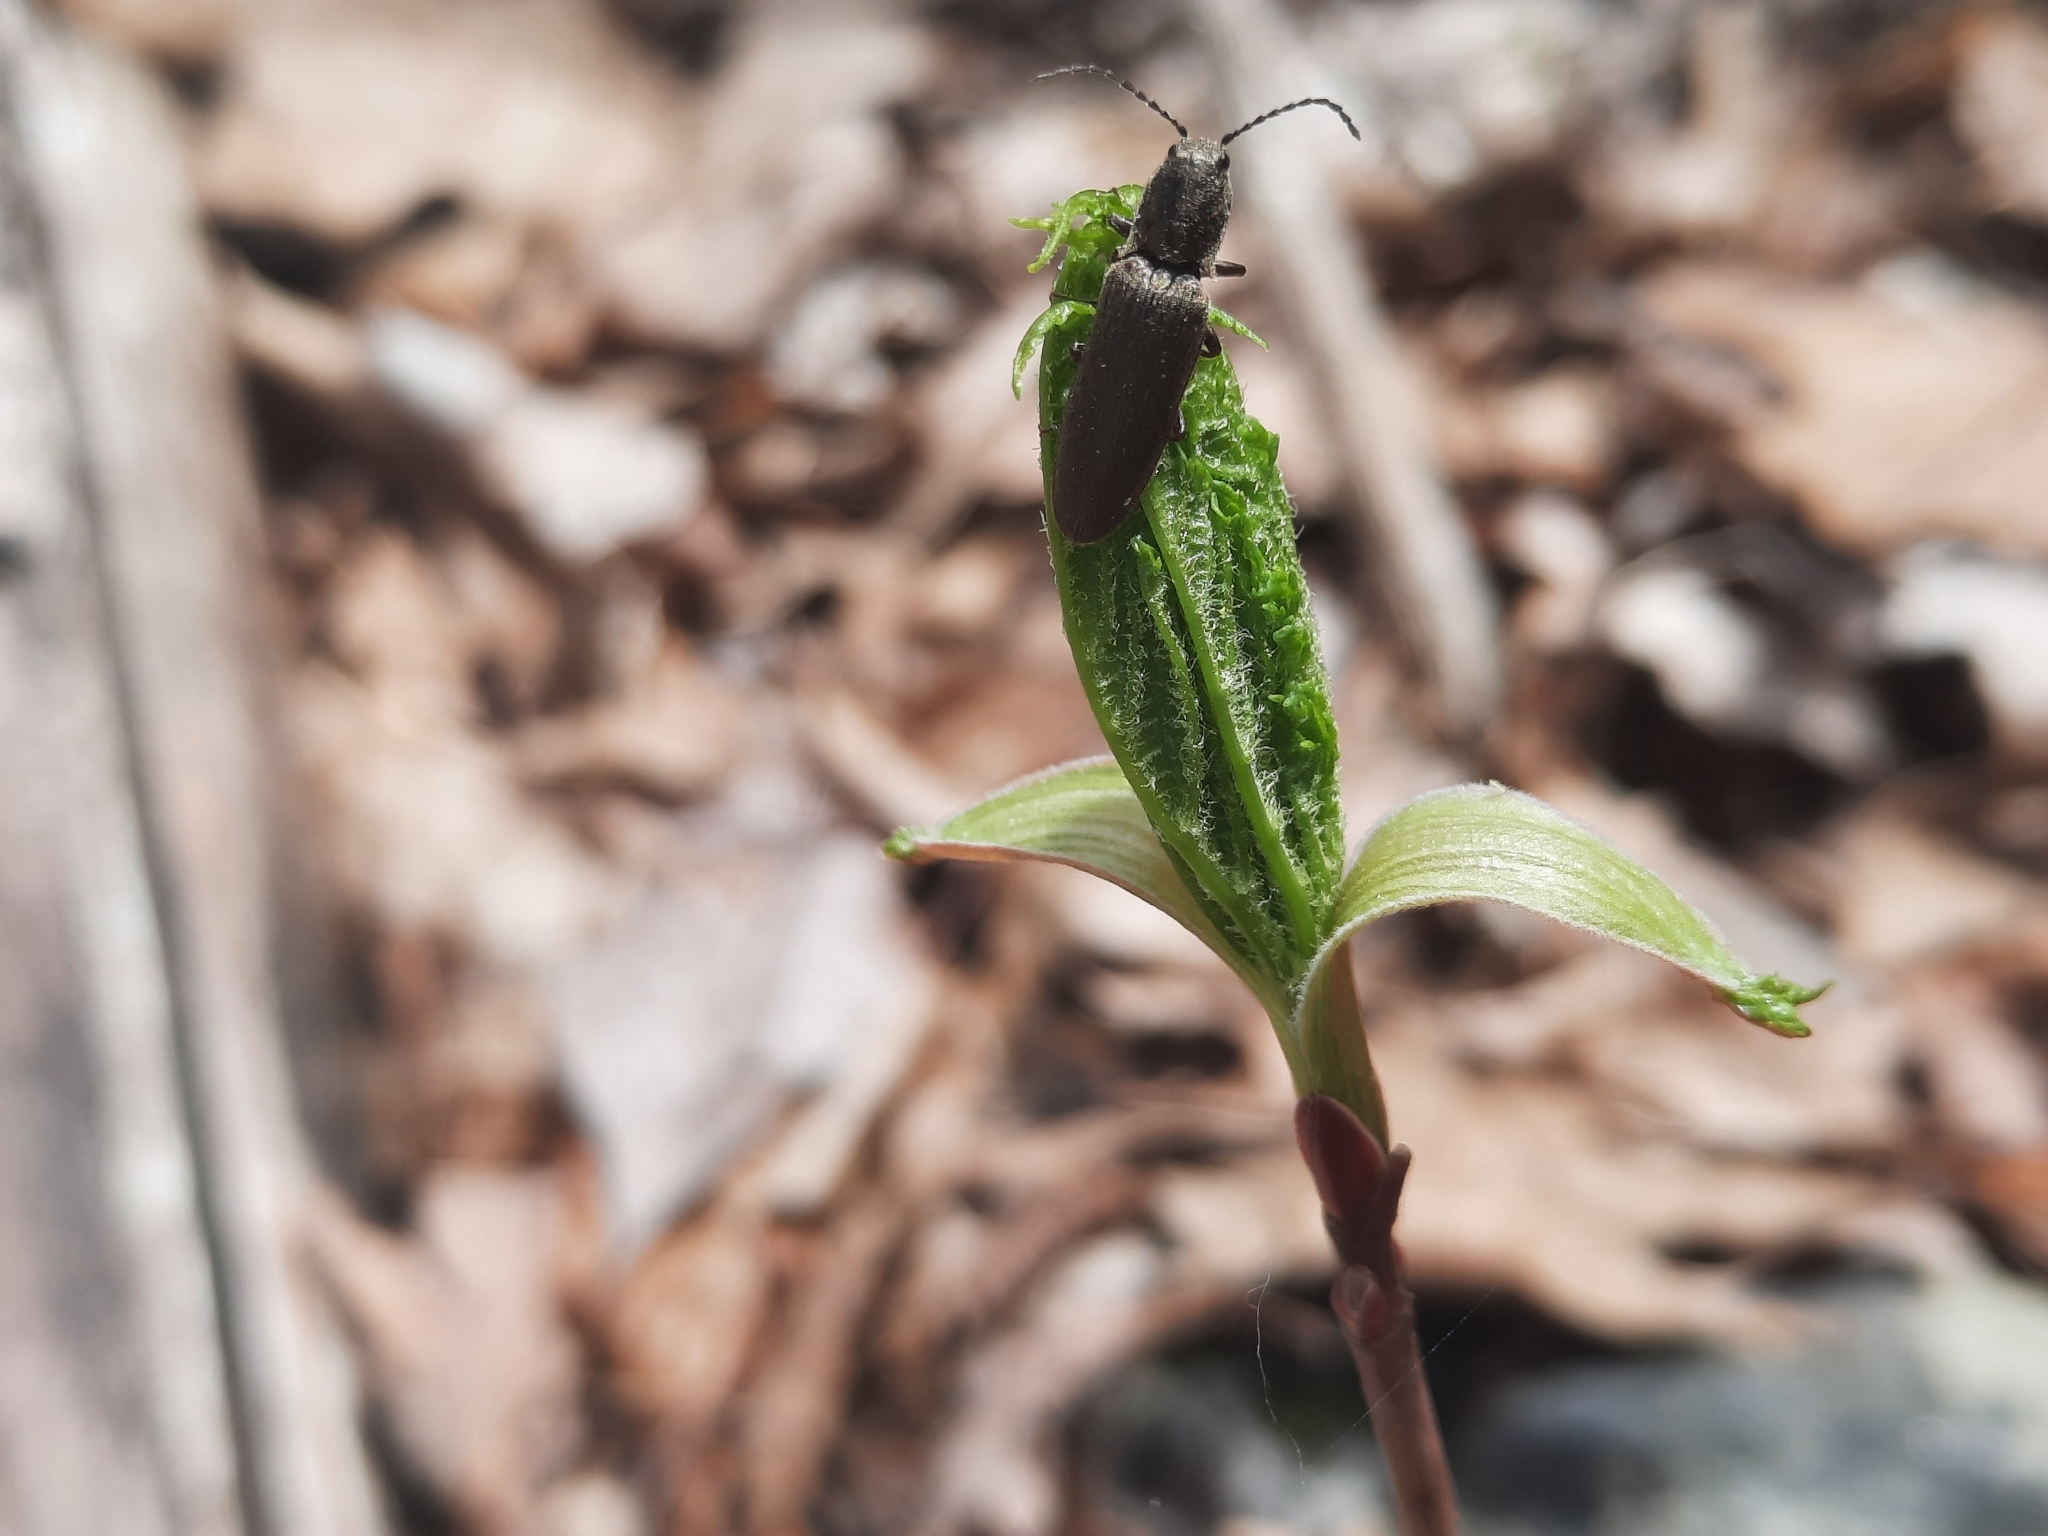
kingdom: Animalia
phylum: Arthropoda
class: Insecta
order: Coleoptera
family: Elateridae
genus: Sylvanelater
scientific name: Sylvanelater cylindriformis
